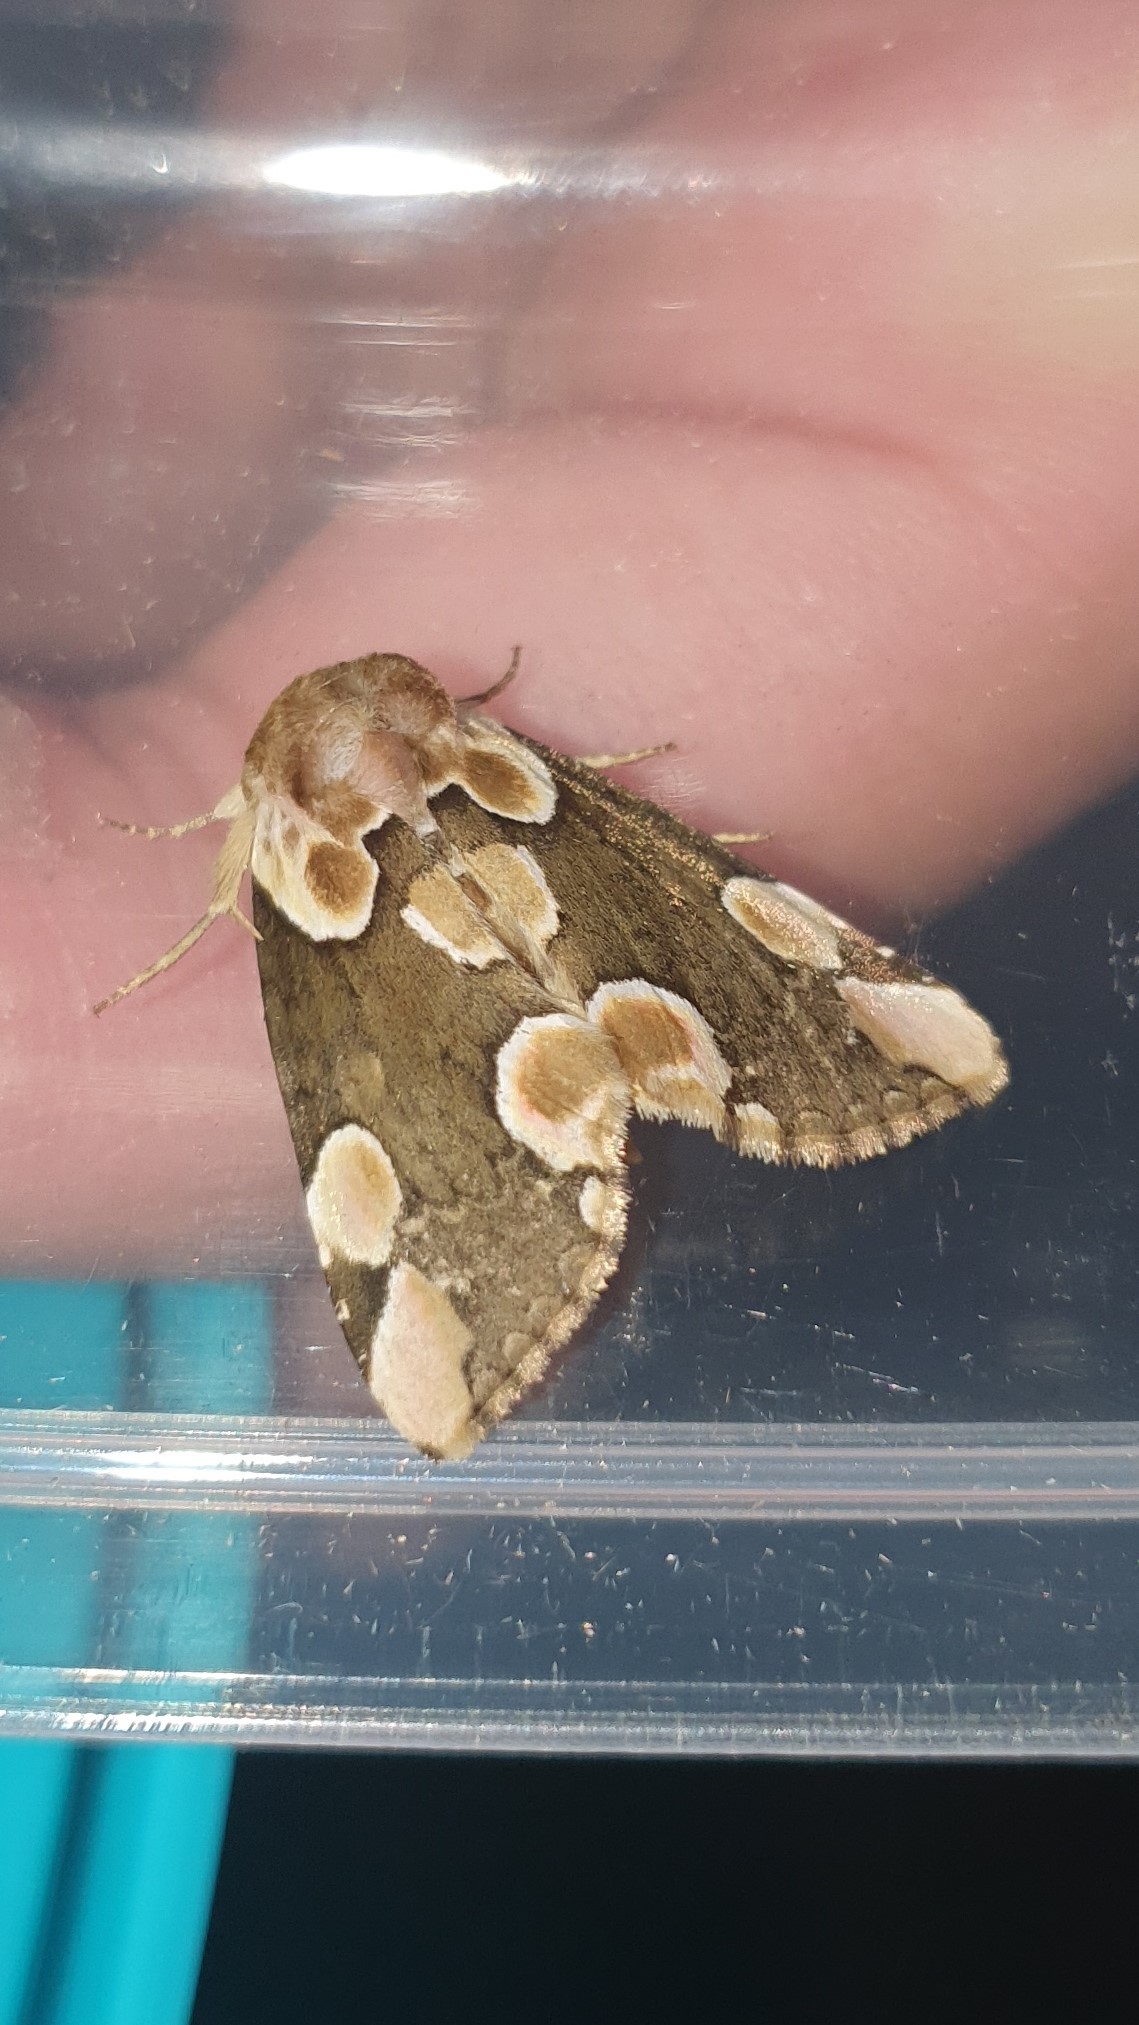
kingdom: Animalia
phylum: Arthropoda
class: Insecta
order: Lepidoptera
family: Drepanidae
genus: Thyatira
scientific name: Thyatira batis
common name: Peach blossom
